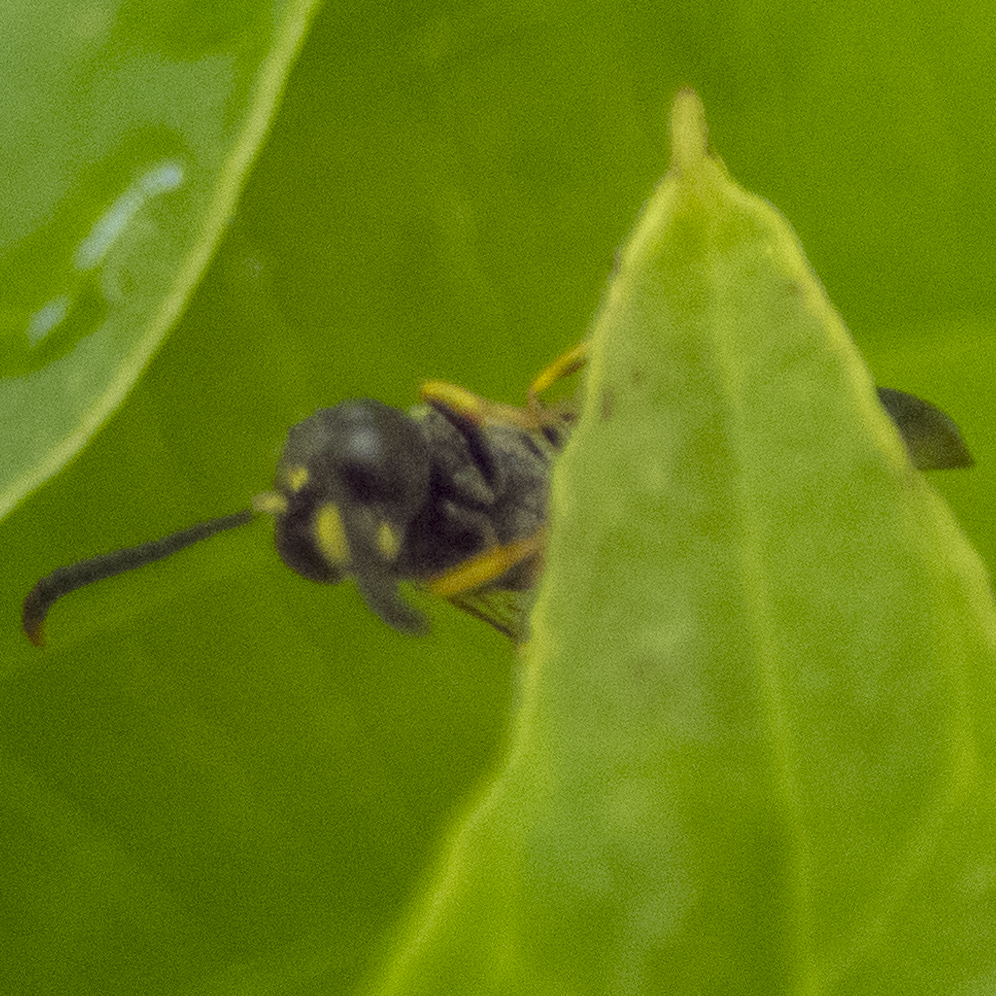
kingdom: Animalia
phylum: Arthropoda
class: Insecta
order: Hymenoptera
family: Eumenidae
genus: Symmorphus
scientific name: Symmorphus
